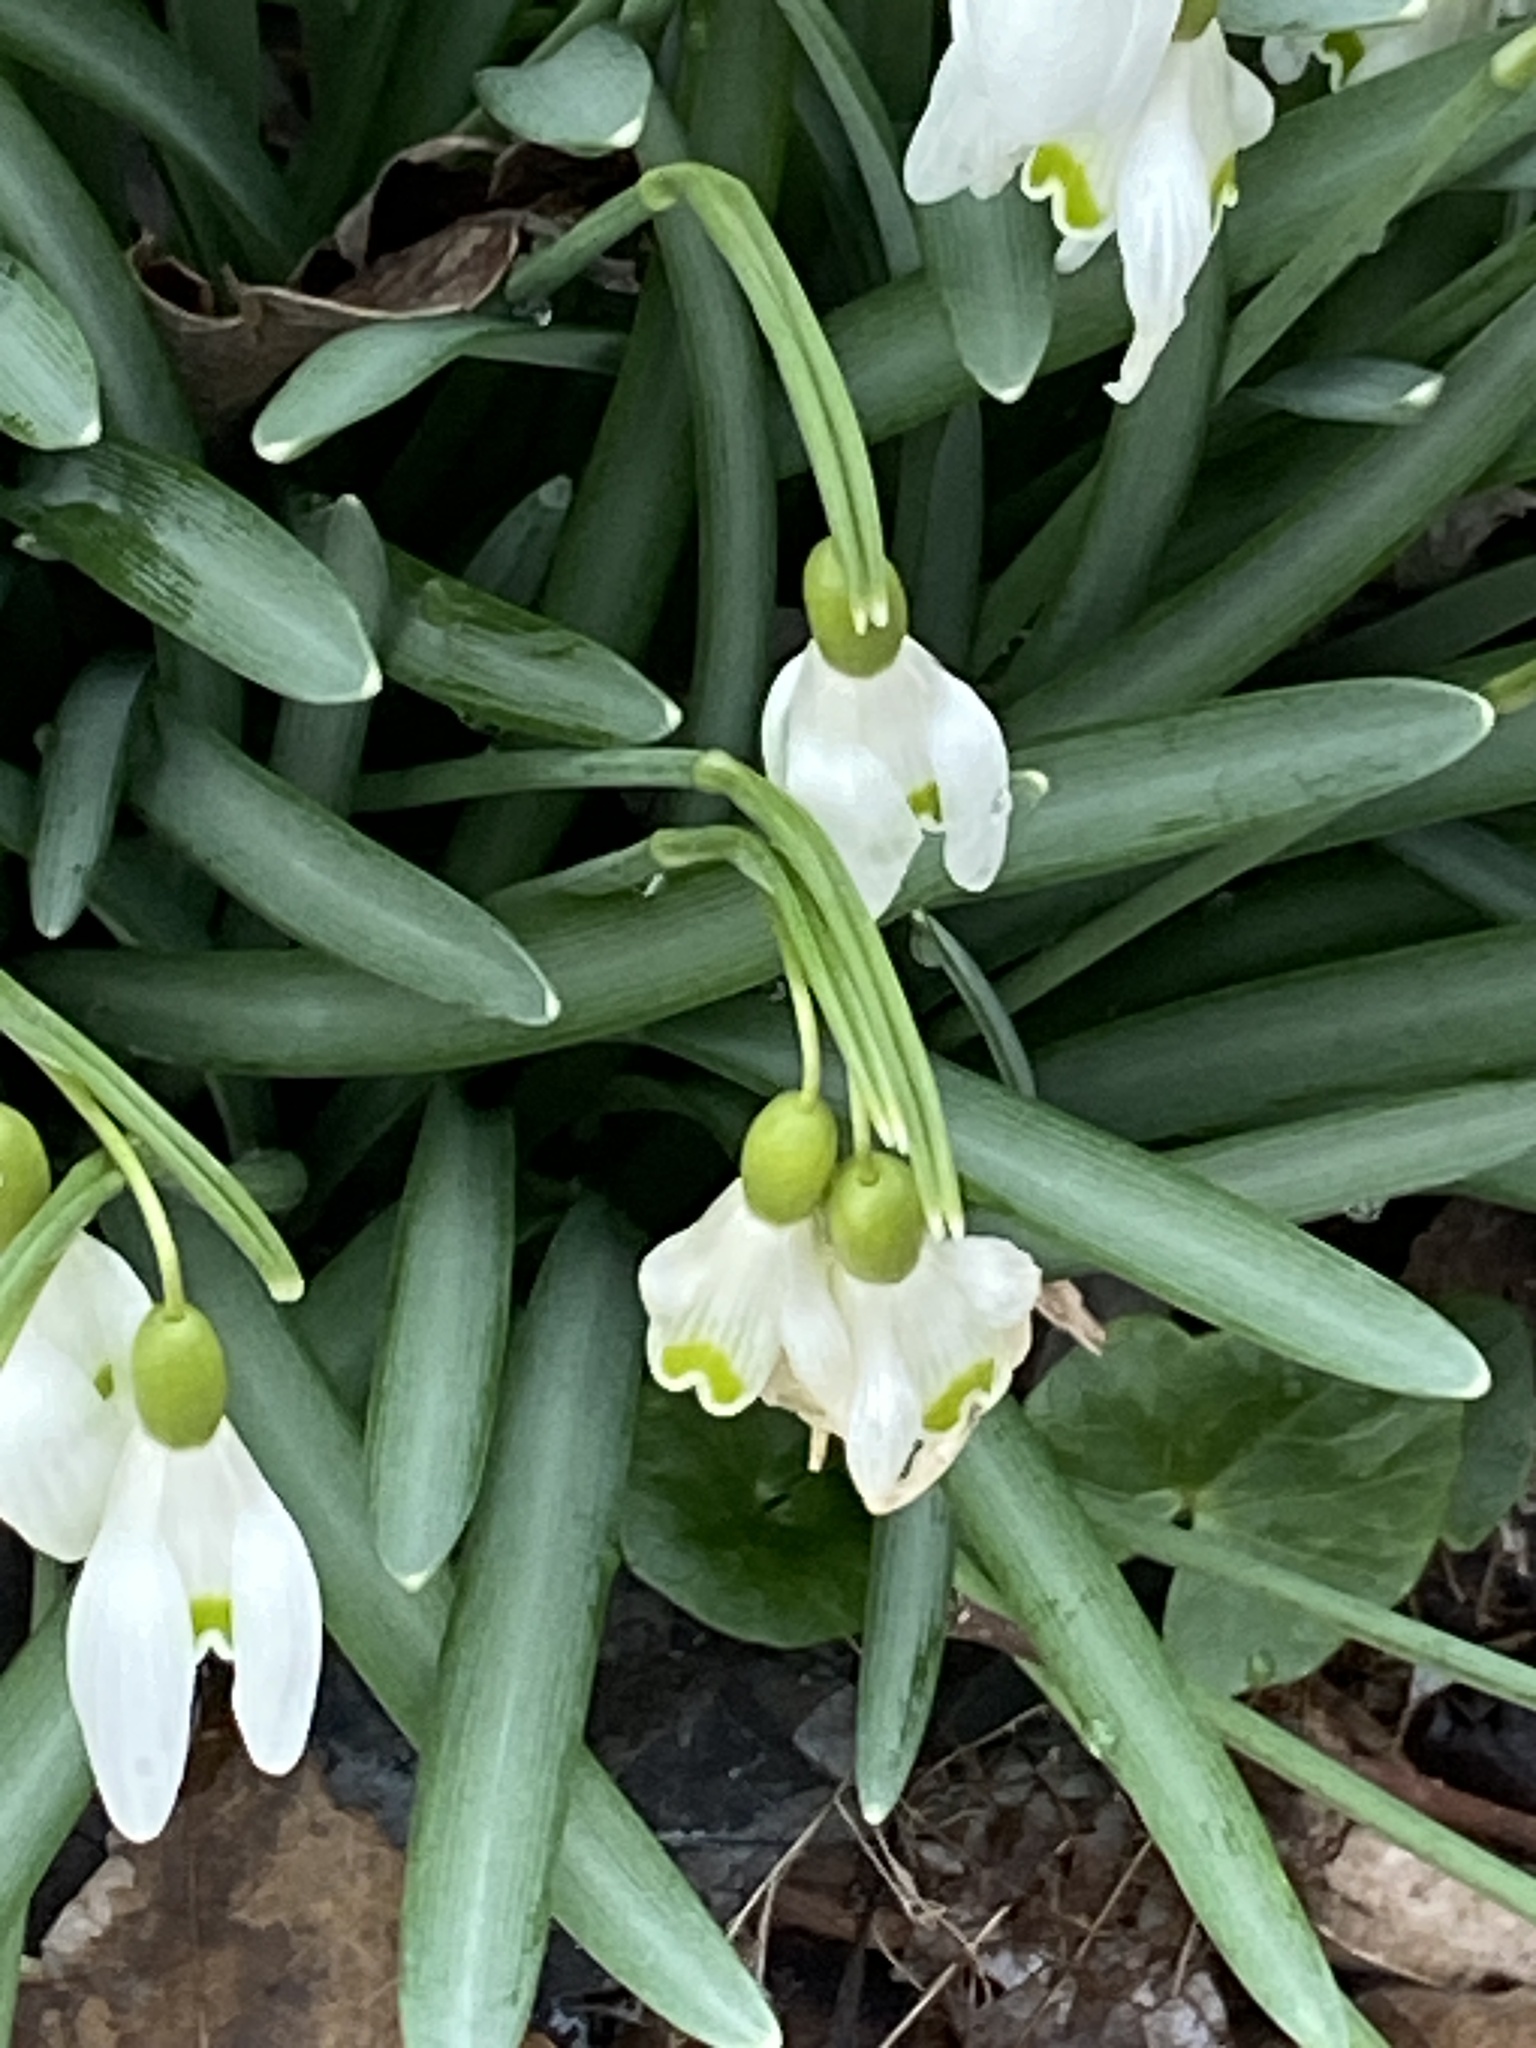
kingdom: Plantae
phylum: Tracheophyta
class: Liliopsida
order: Asparagales
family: Amaryllidaceae
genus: Galanthus
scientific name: Galanthus nivalis
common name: Snowdrop
